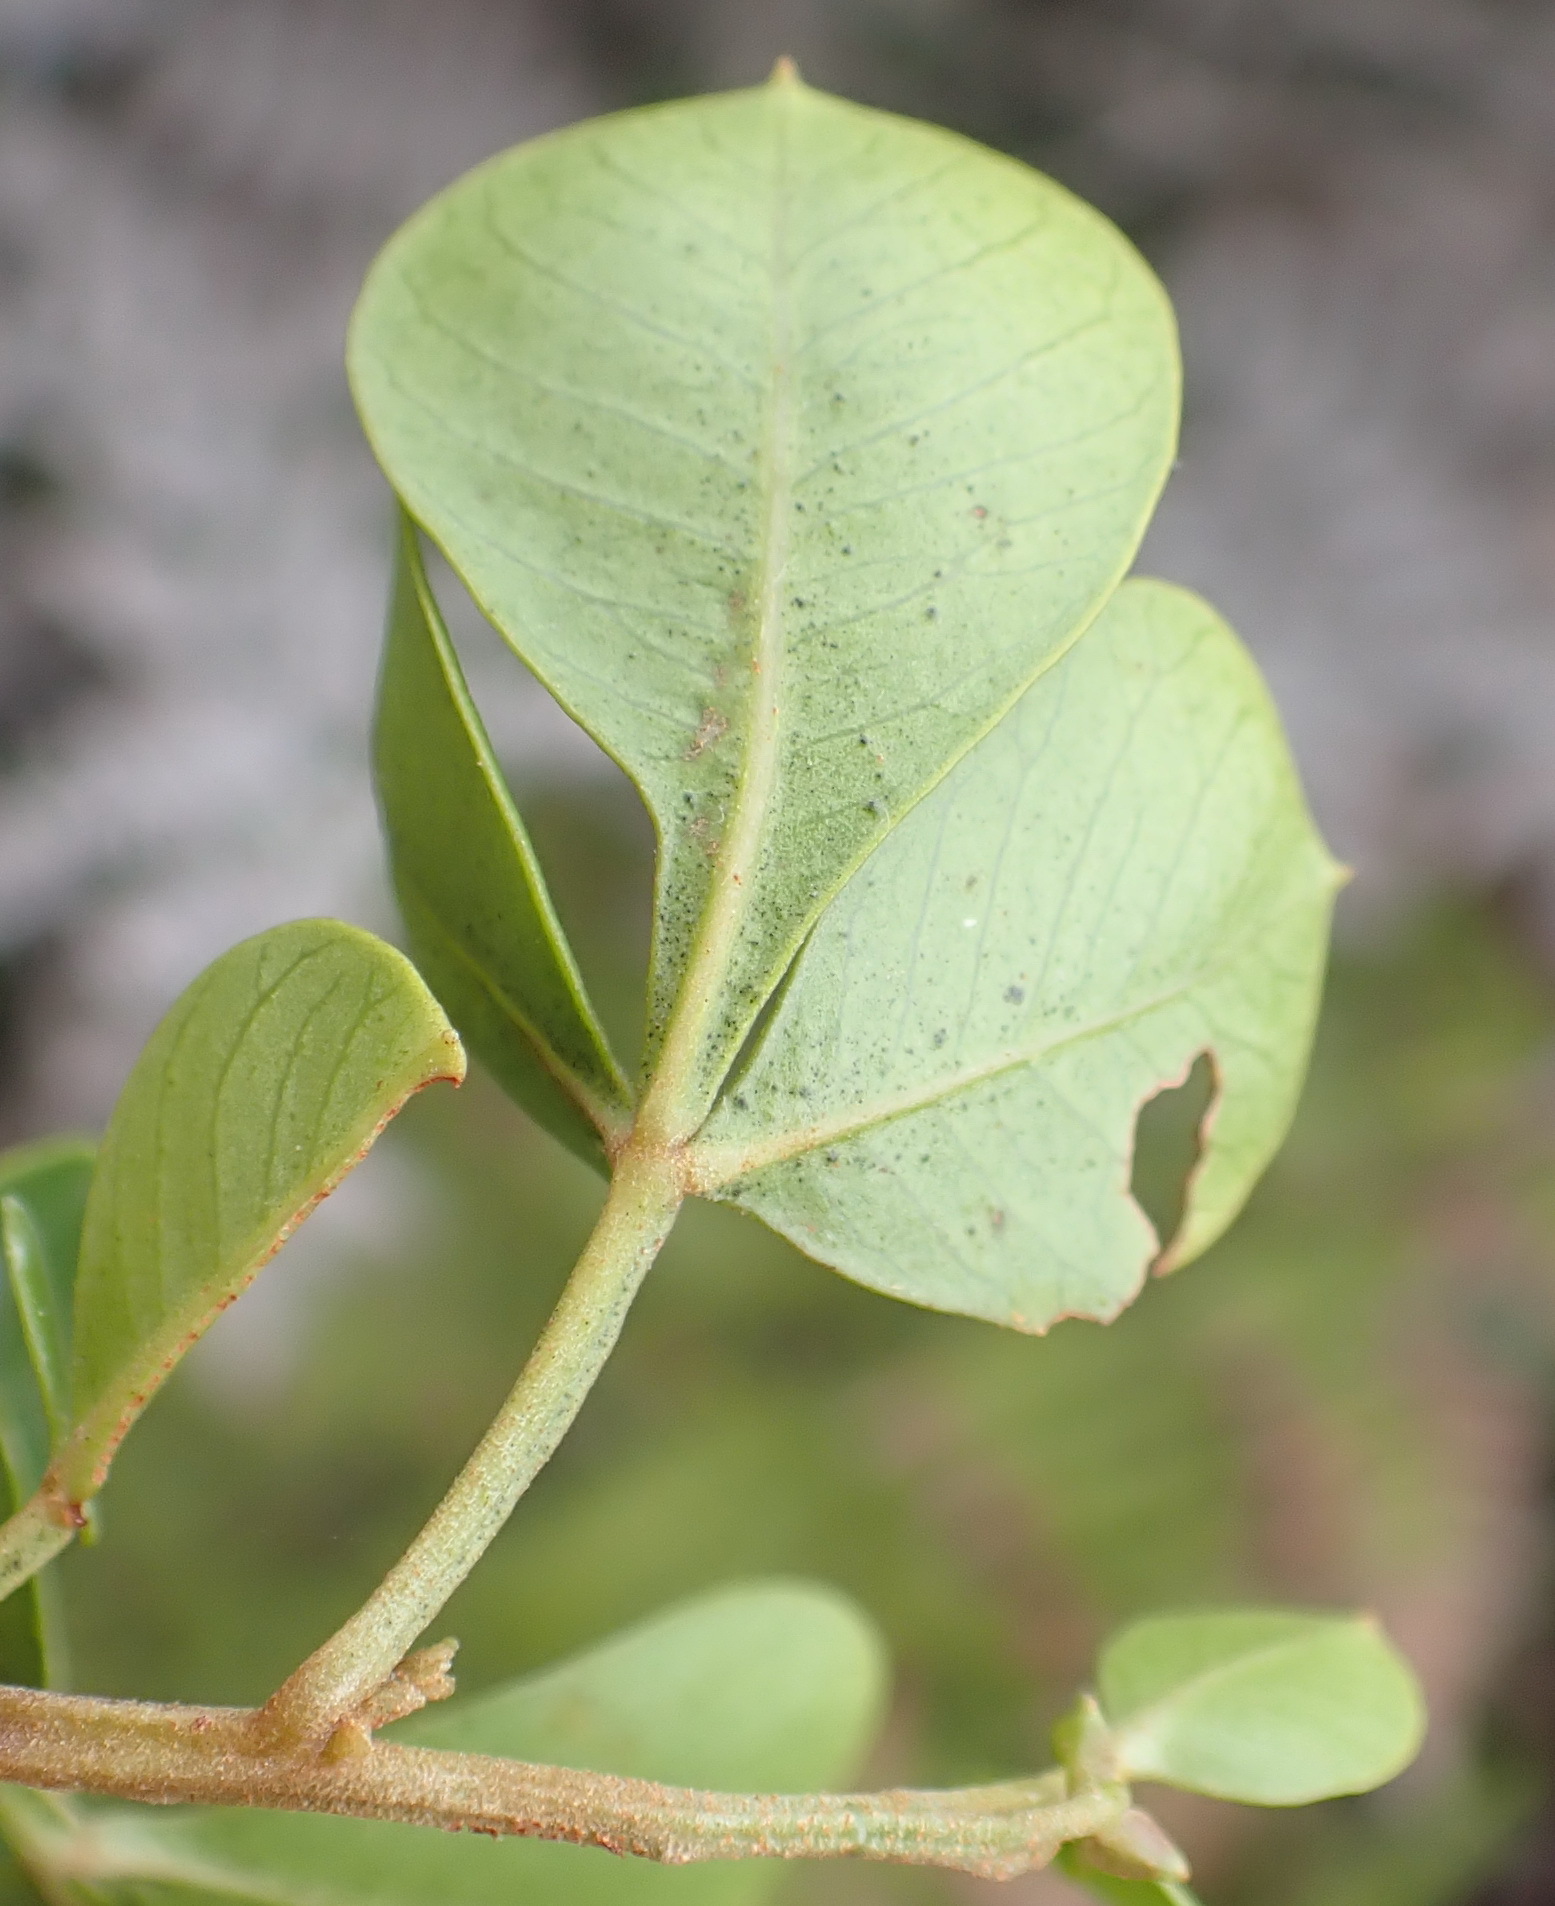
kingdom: Plantae
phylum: Tracheophyta
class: Magnoliopsida
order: Sapindales
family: Anacardiaceae
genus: Searsia
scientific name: Searsia glauca
